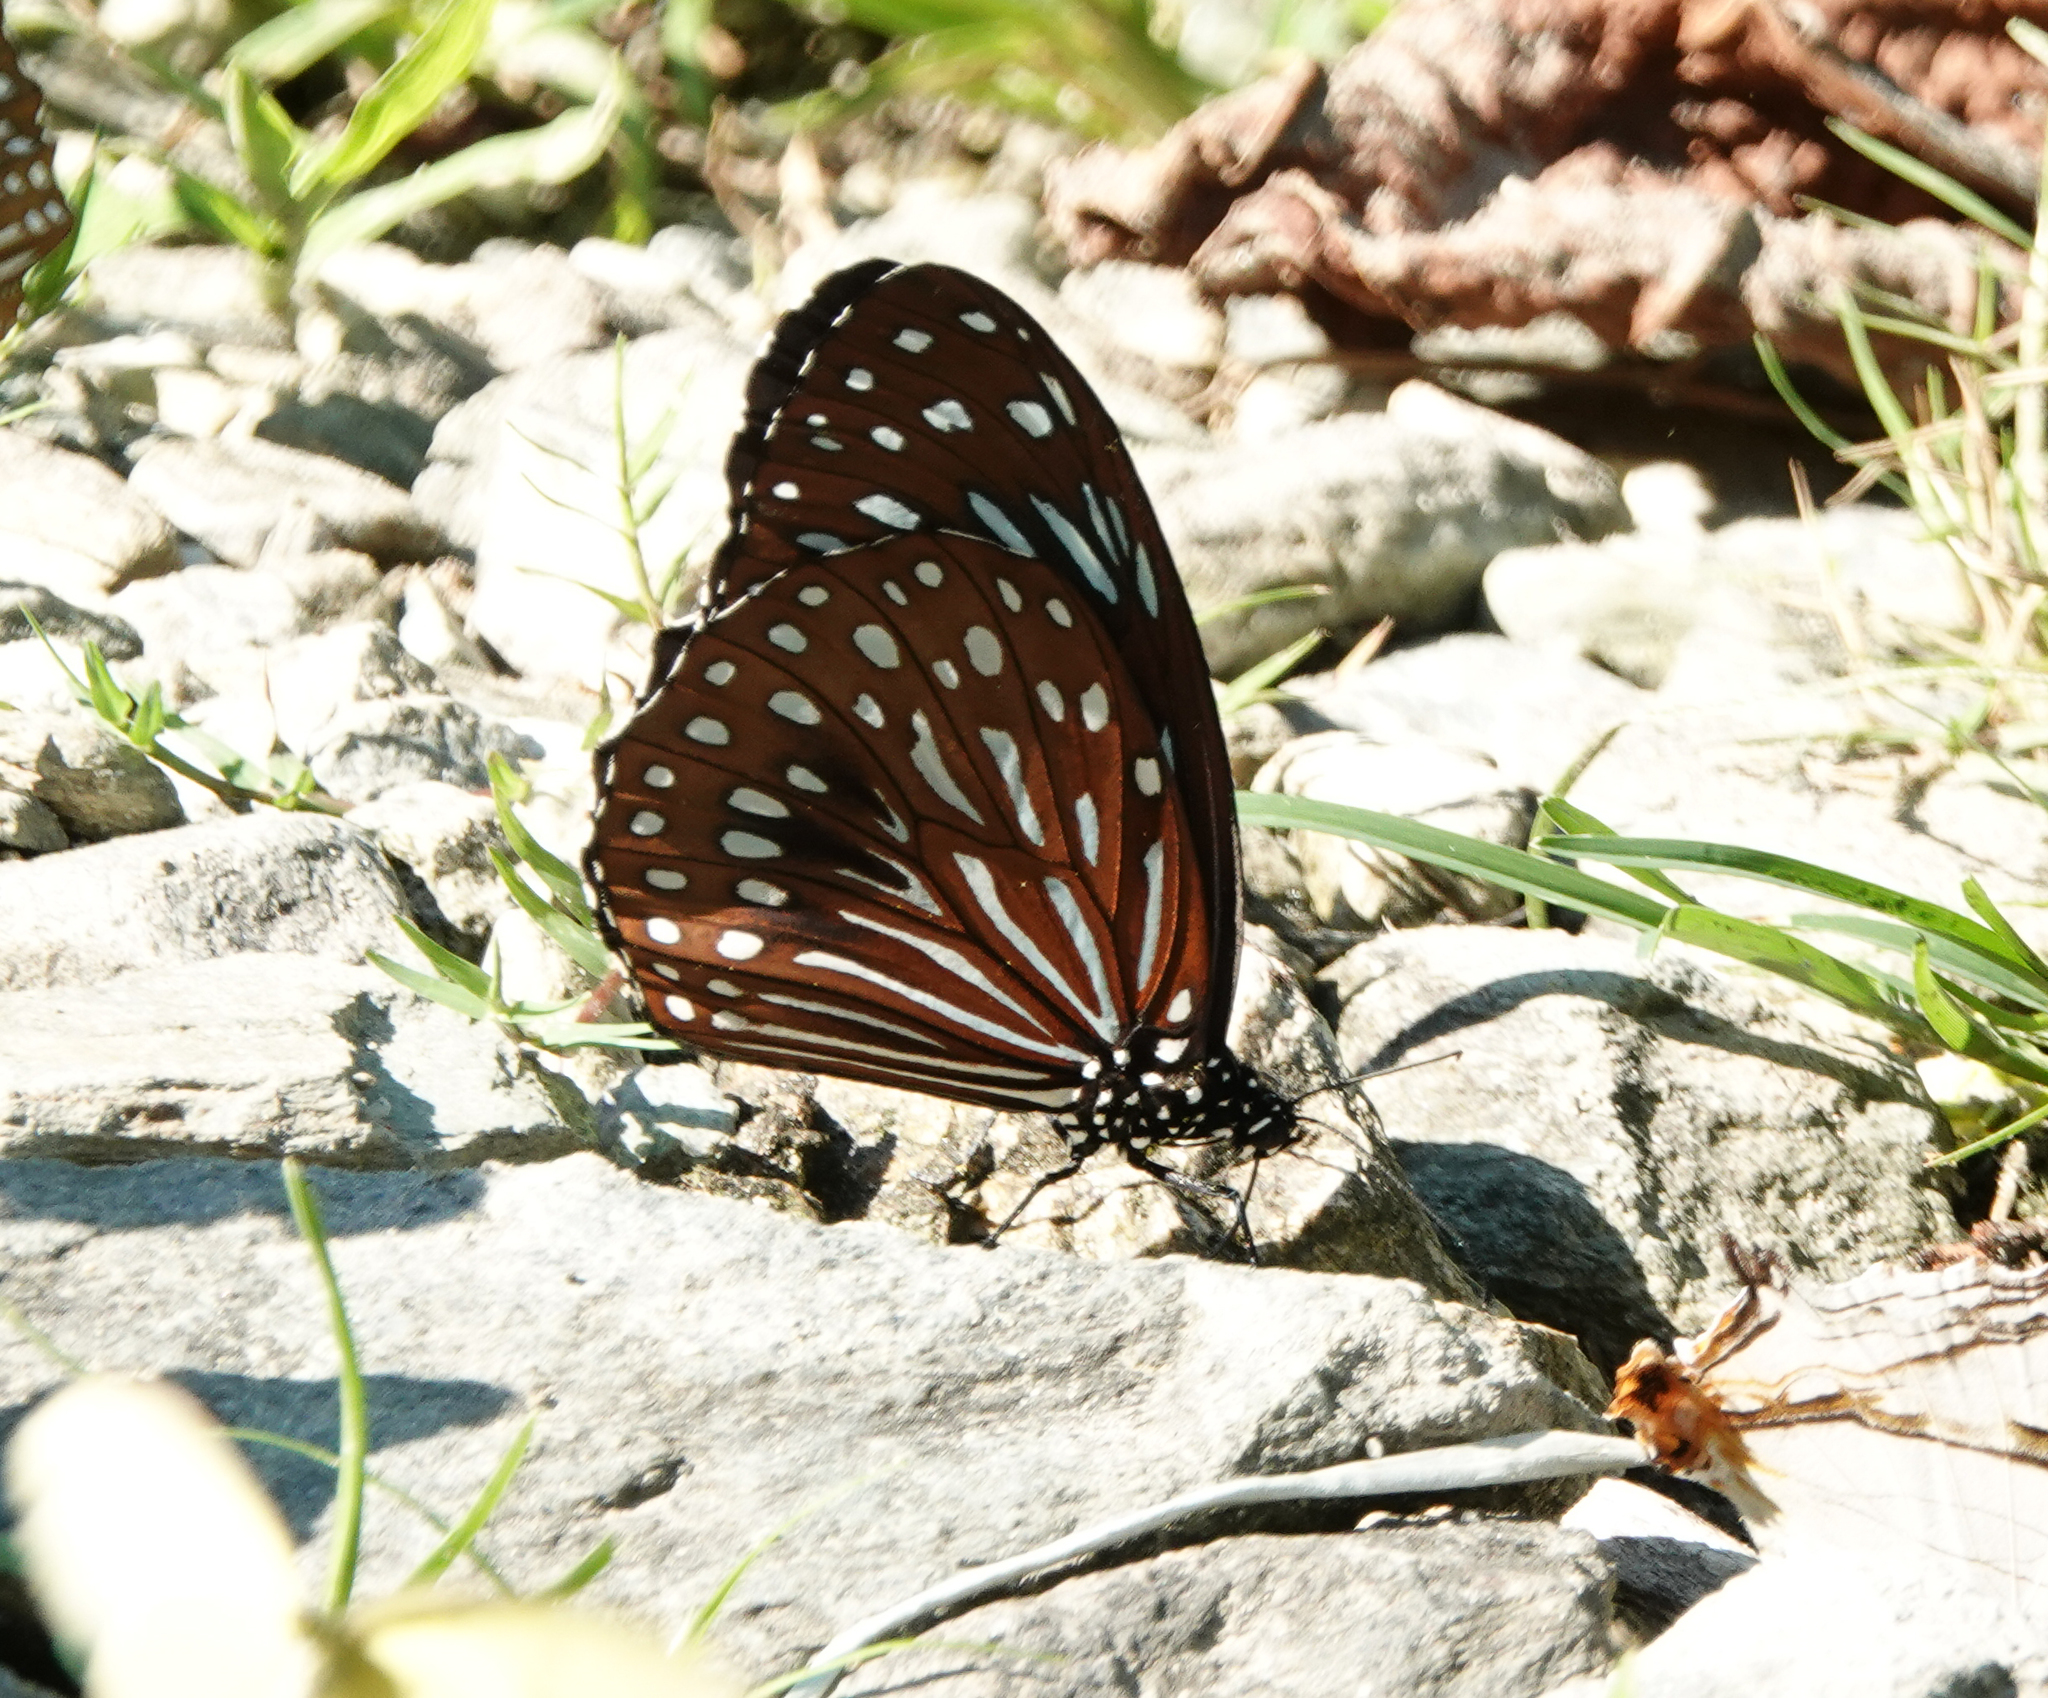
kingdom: Animalia
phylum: Arthropoda
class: Insecta
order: Lepidoptera
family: Nymphalidae
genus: Tirumala
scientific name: Tirumala septentrionis
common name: Dark blue tiger butterfly
